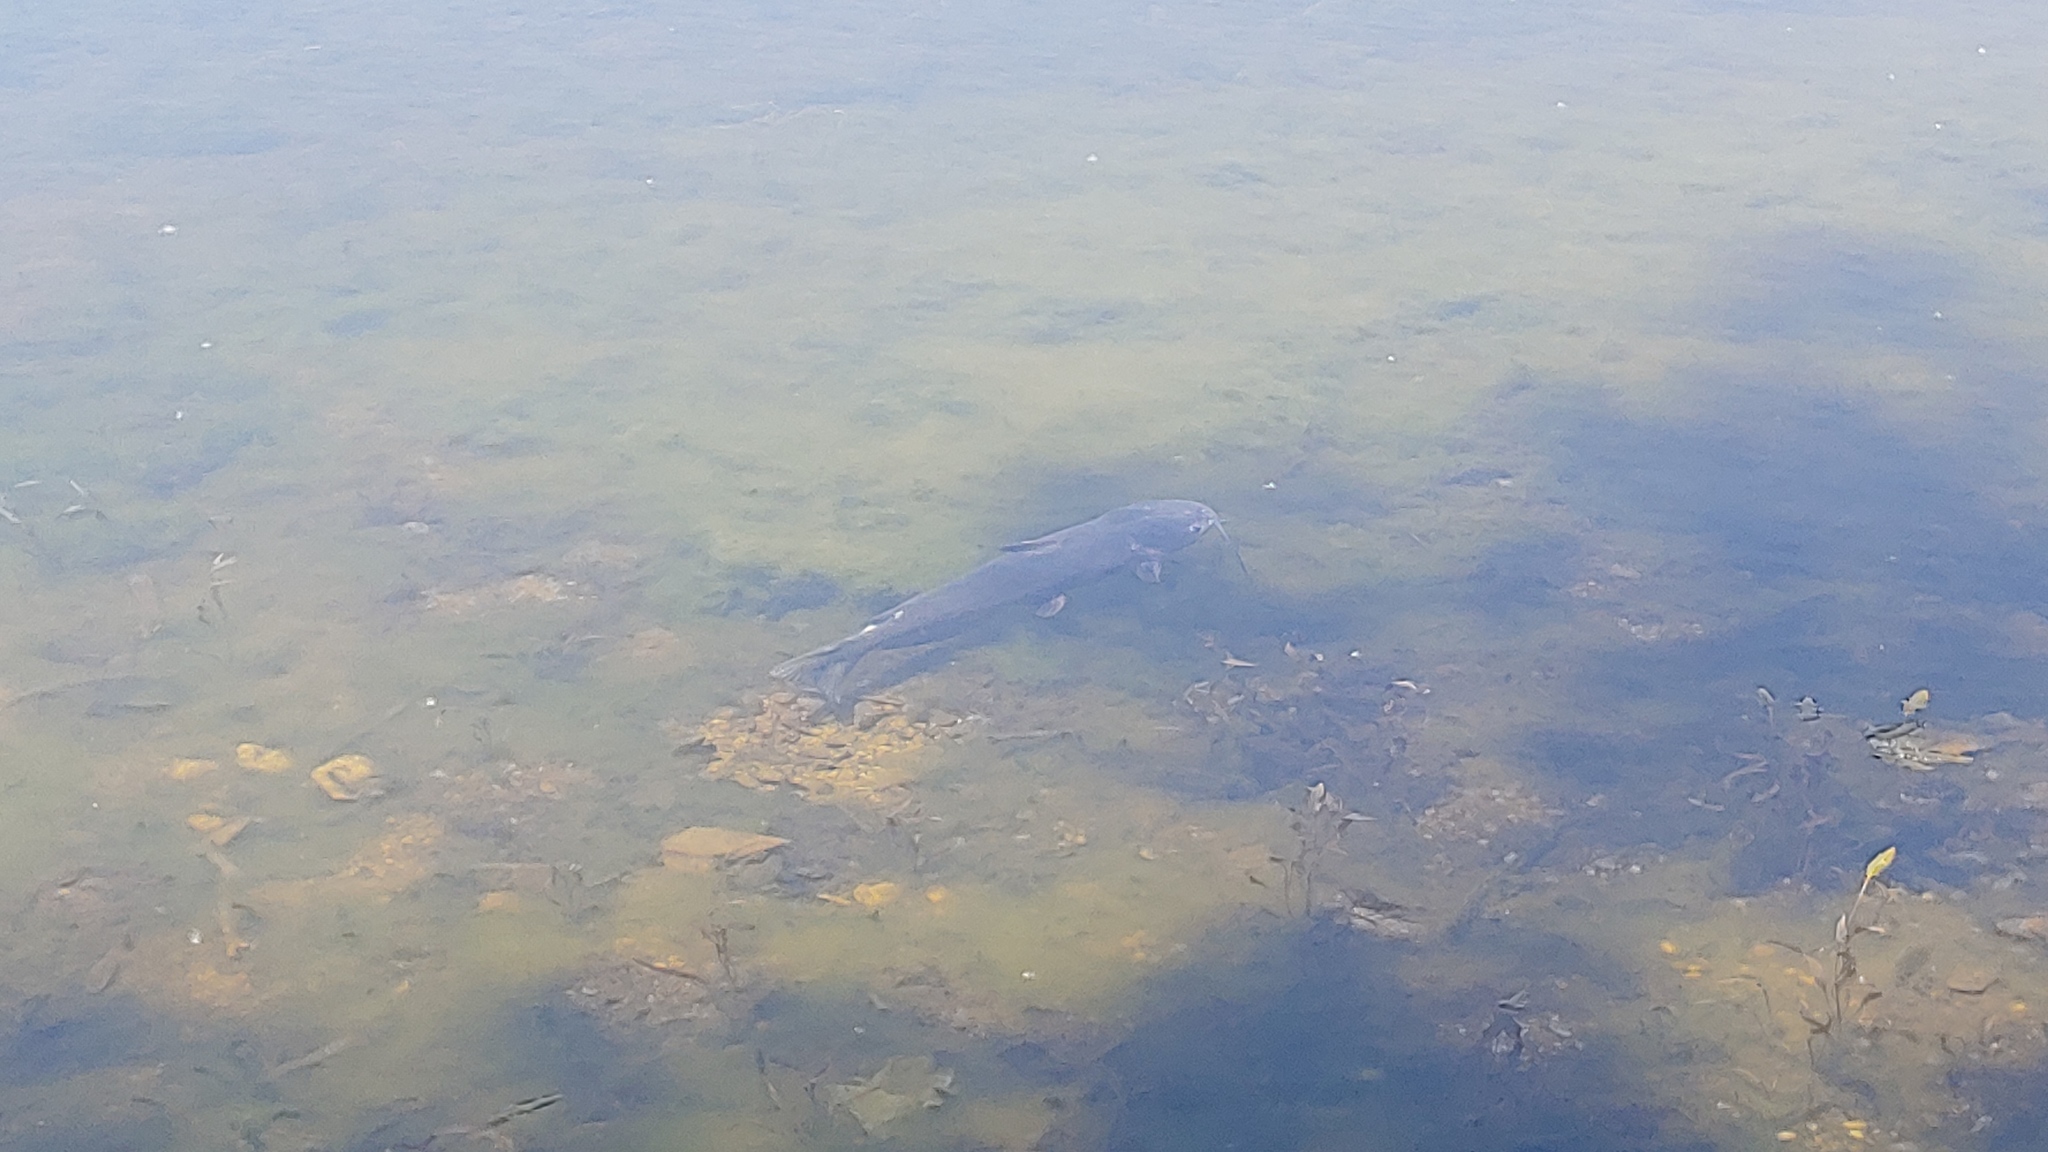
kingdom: Animalia
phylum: Chordata
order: Siluriformes
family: Ictaluridae
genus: Ictalurus
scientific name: Ictalurus punctatus
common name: Channel catfish
